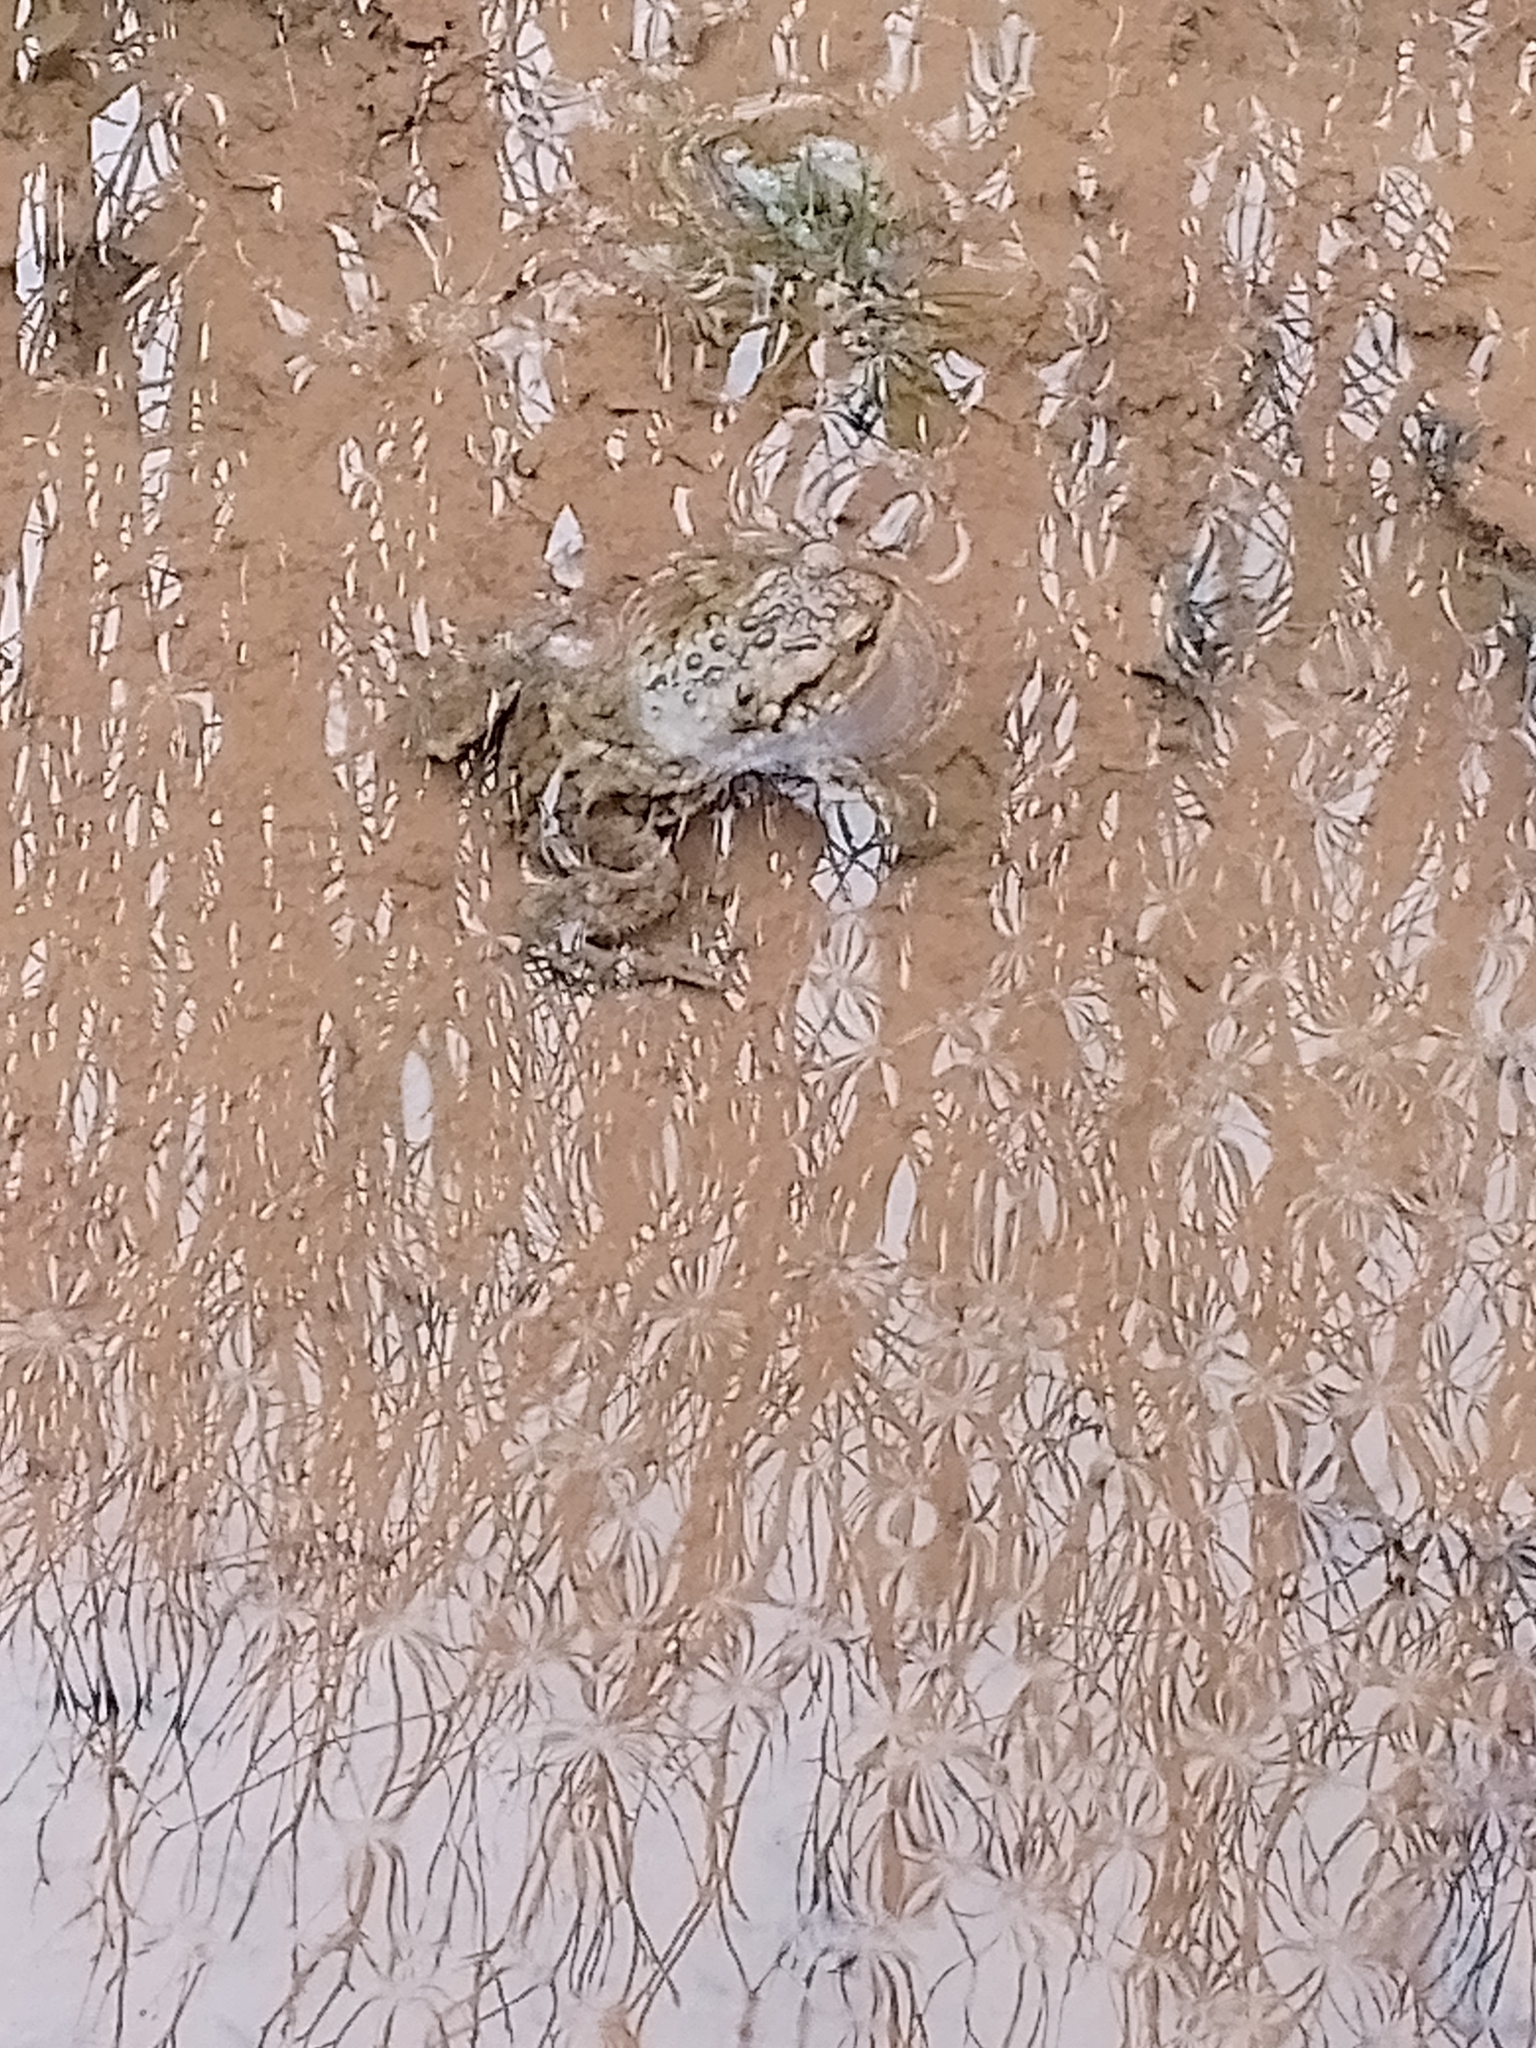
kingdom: Animalia
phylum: Chordata
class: Amphibia
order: Anura
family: Bufonidae
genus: Bufo
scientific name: Bufo bufo
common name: Common toad
